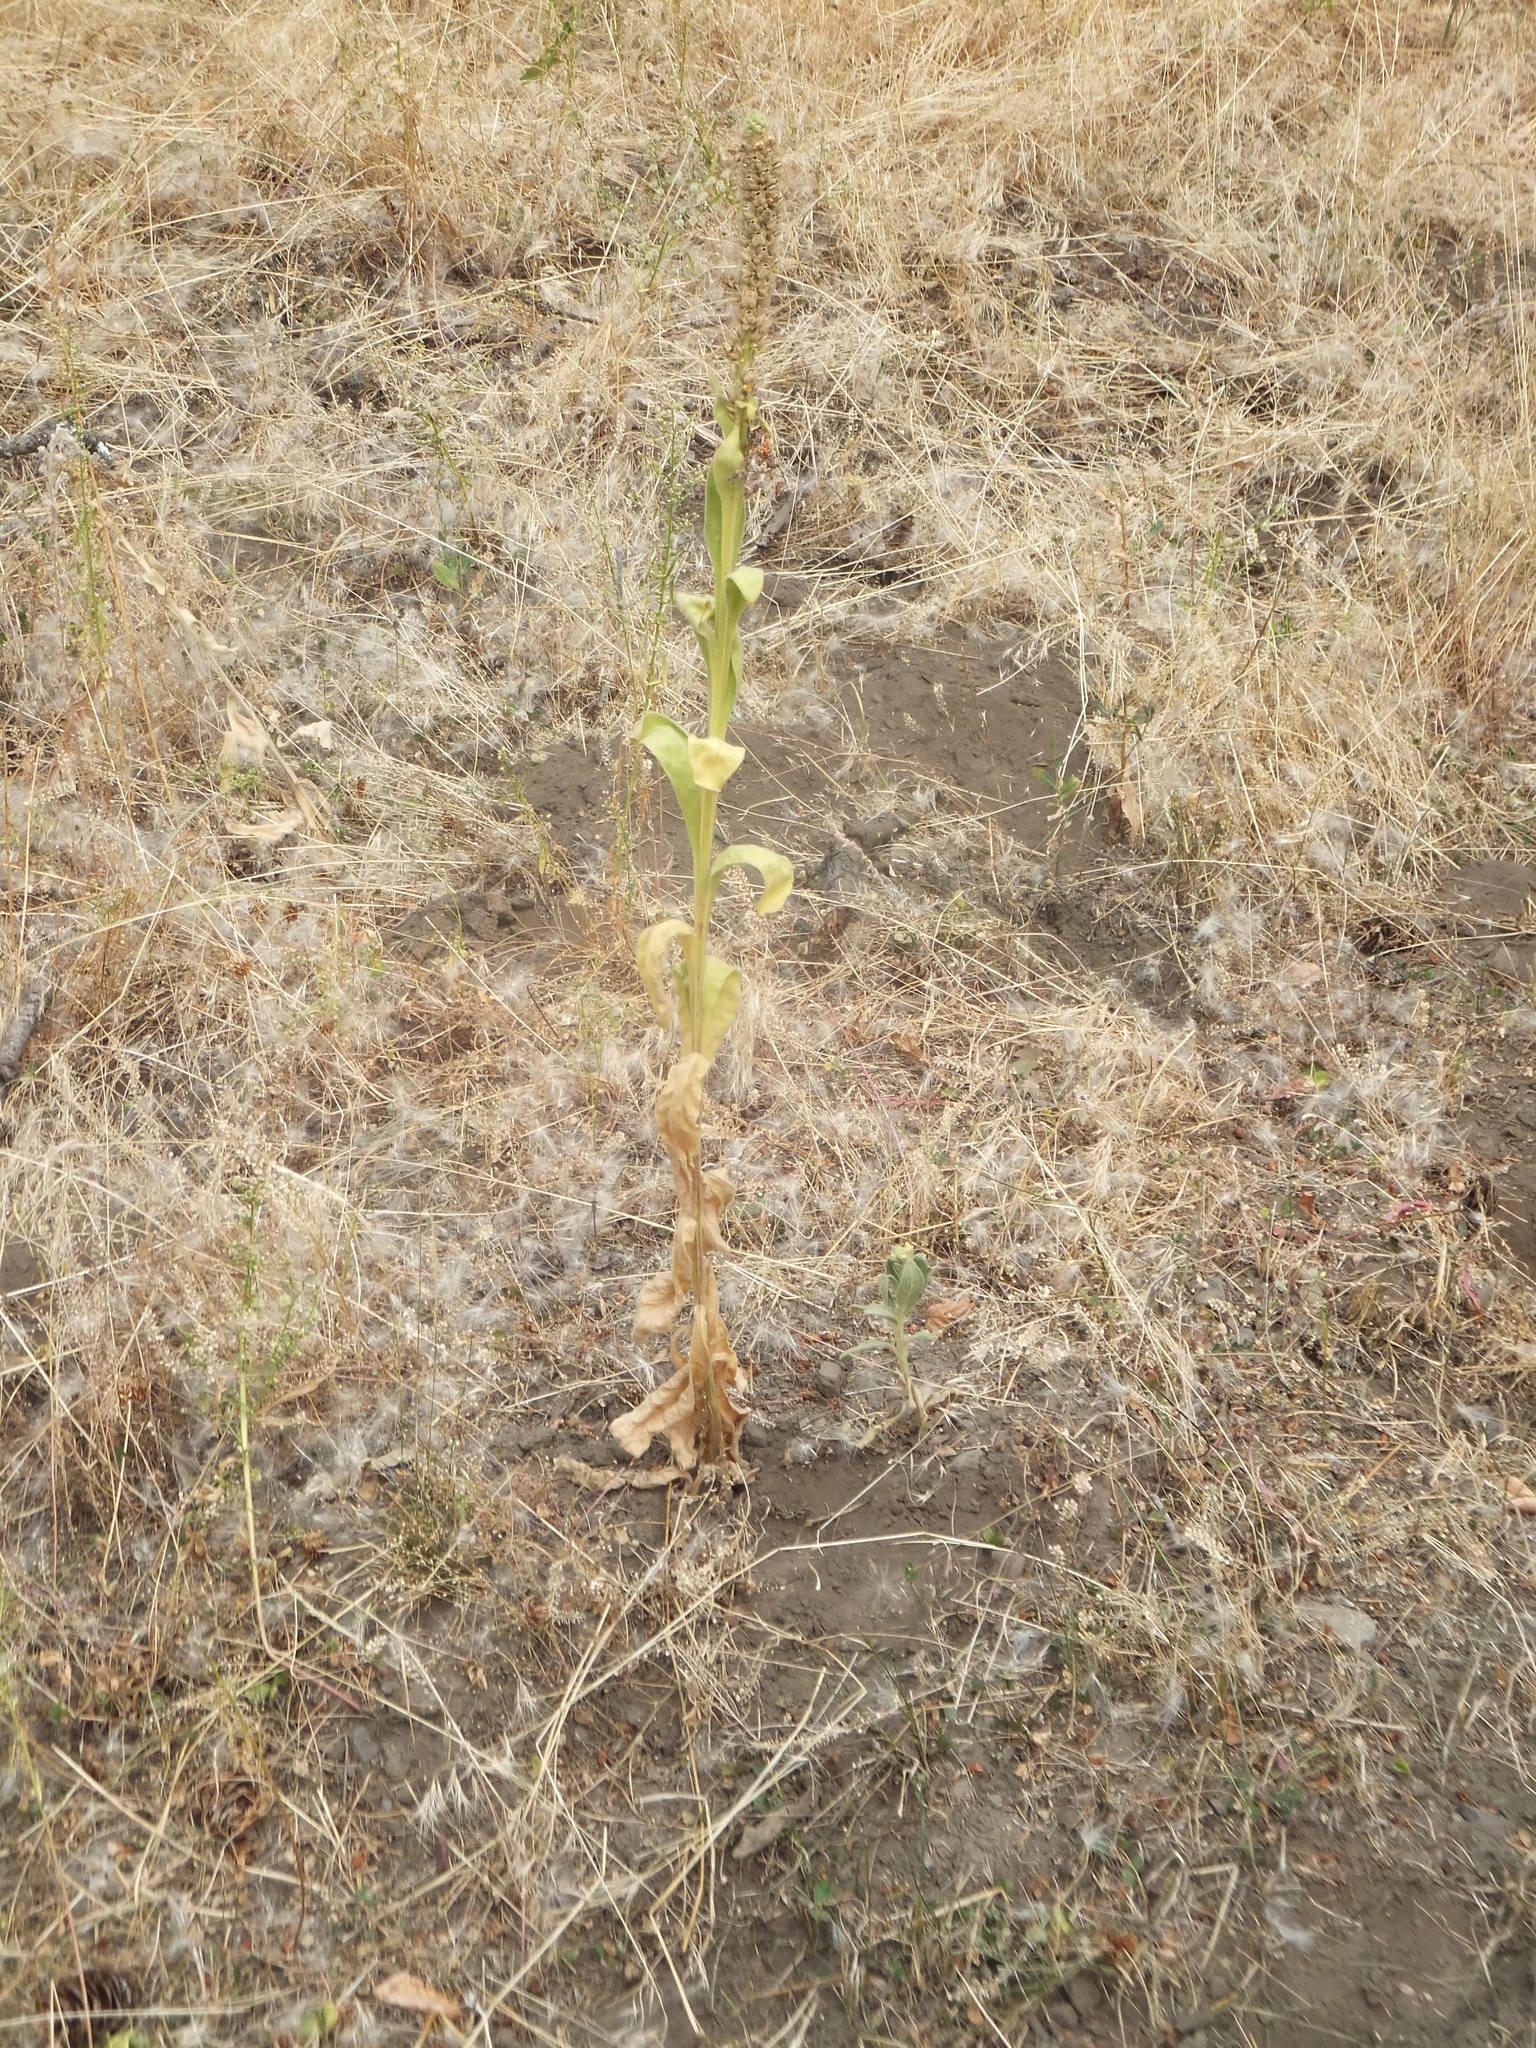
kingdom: Plantae
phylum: Tracheophyta
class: Magnoliopsida
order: Lamiales
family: Scrophulariaceae
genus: Verbascum
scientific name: Verbascum thapsus
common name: Common mullein
